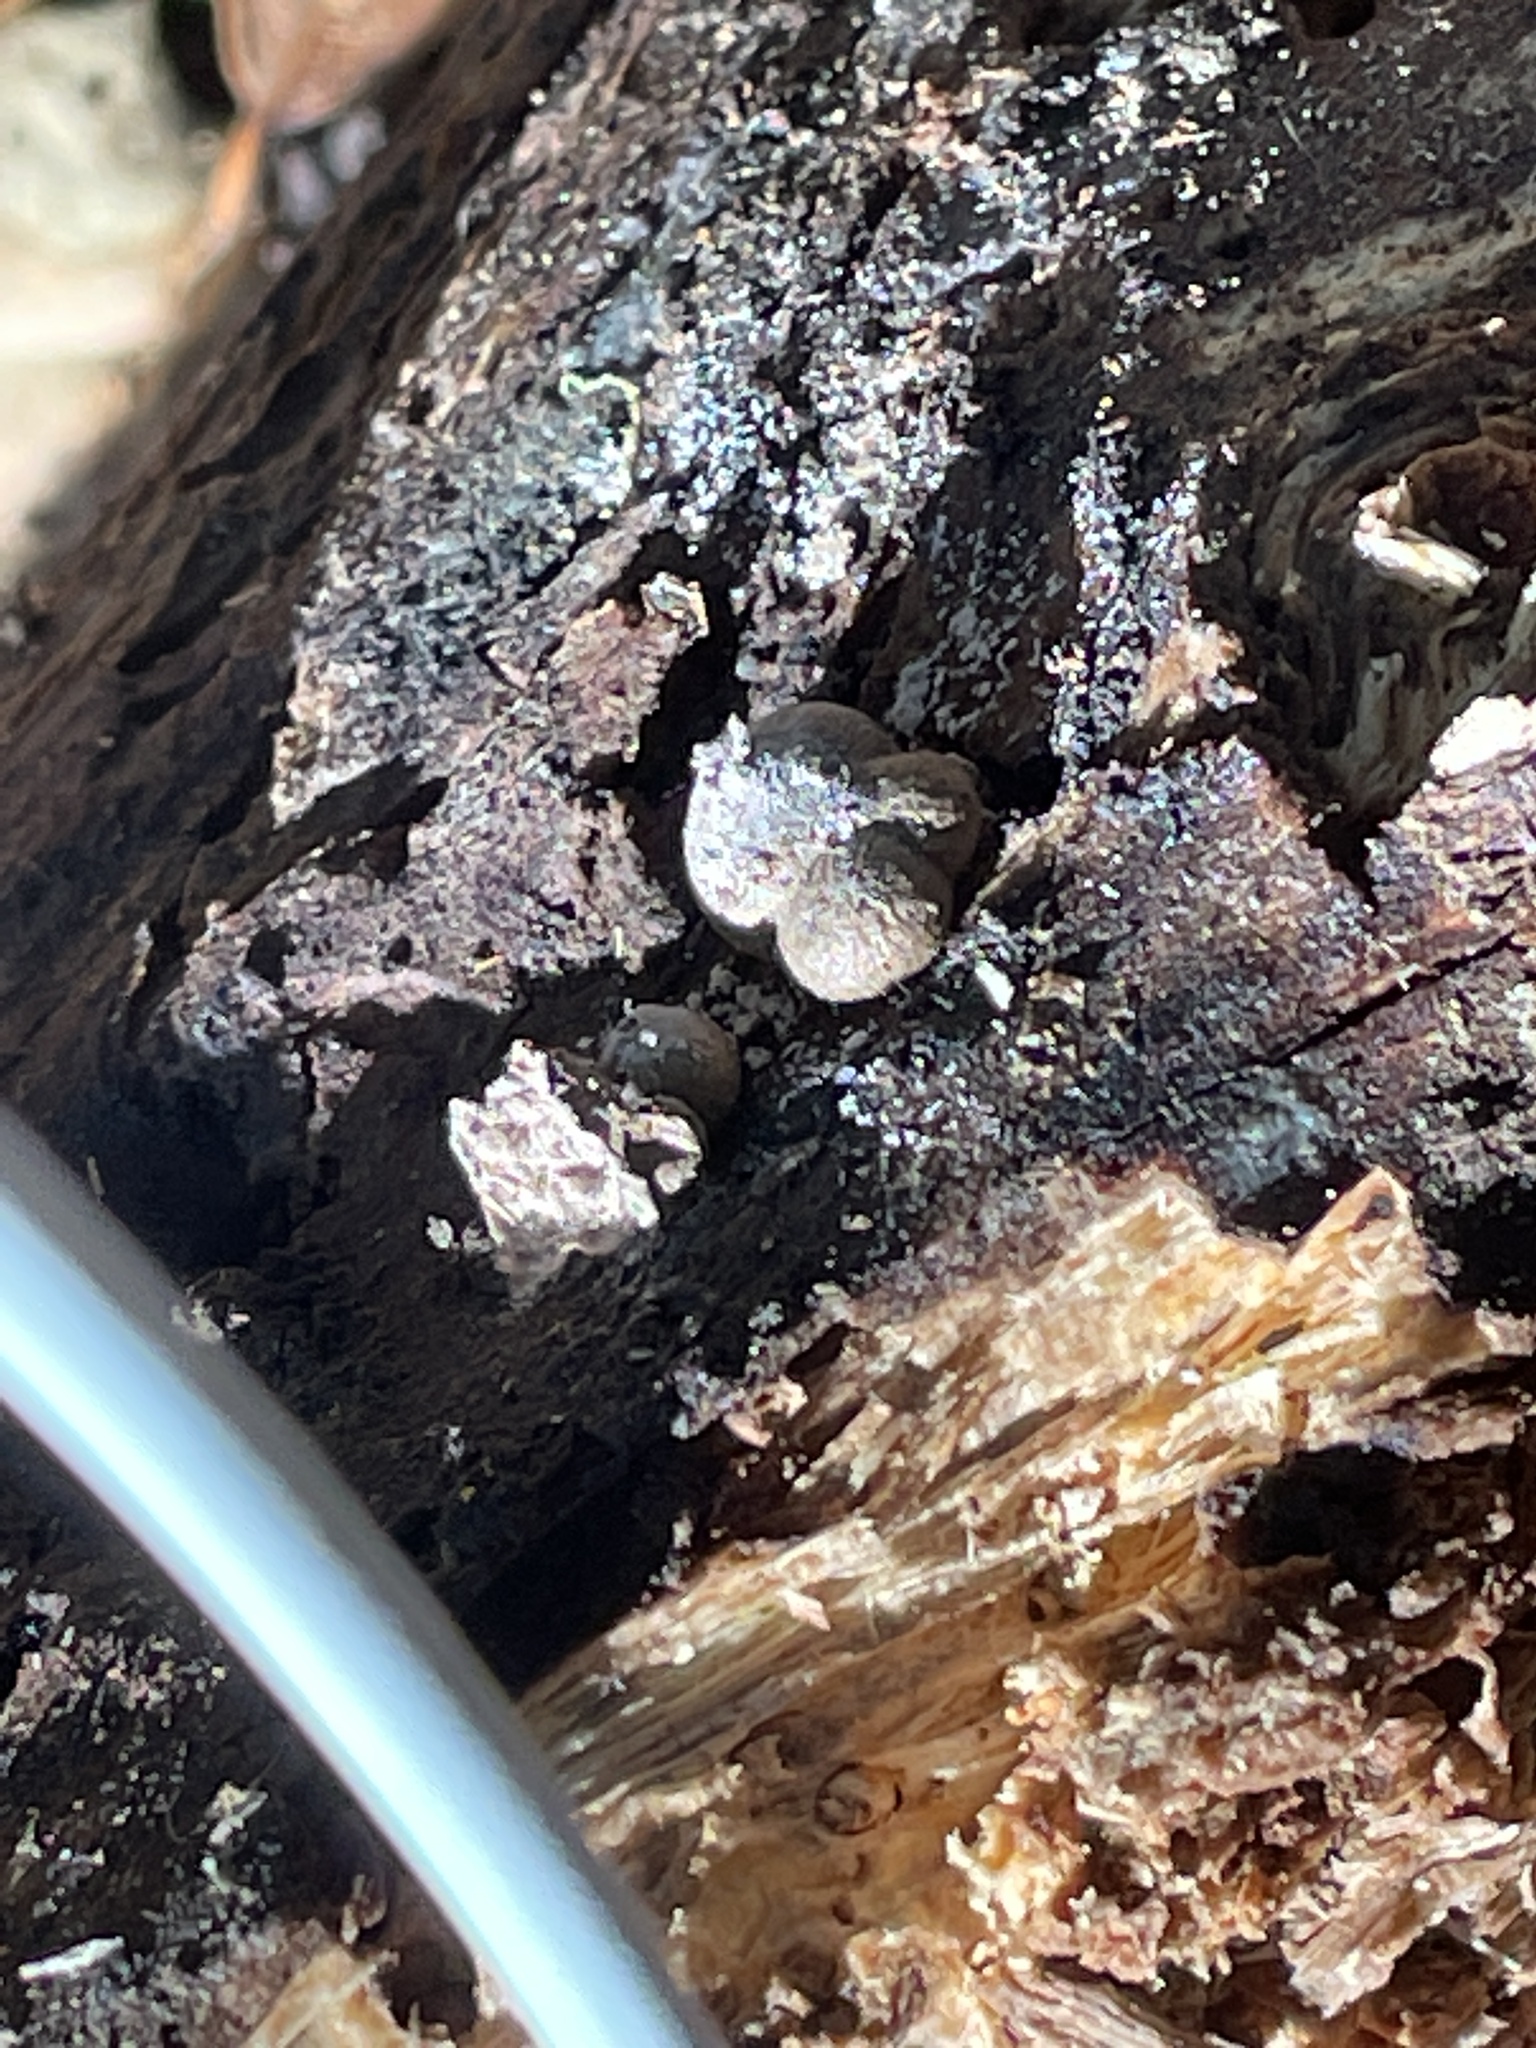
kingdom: Protozoa
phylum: Mycetozoa
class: Myxomycetes
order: Cribrariales
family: Tubiferaceae
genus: Lycogala
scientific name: Lycogala epidendrum
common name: Wolf's milk
